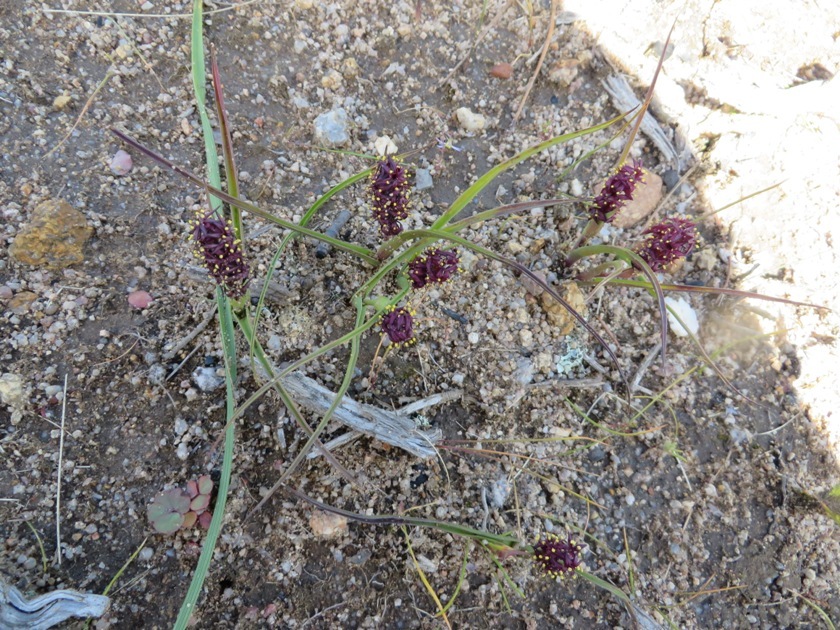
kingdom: Plantae
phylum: Tracheophyta
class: Liliopsida
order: Liliales
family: Colchicaceae
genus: Wurmbea
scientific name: Wurmbea recurva
